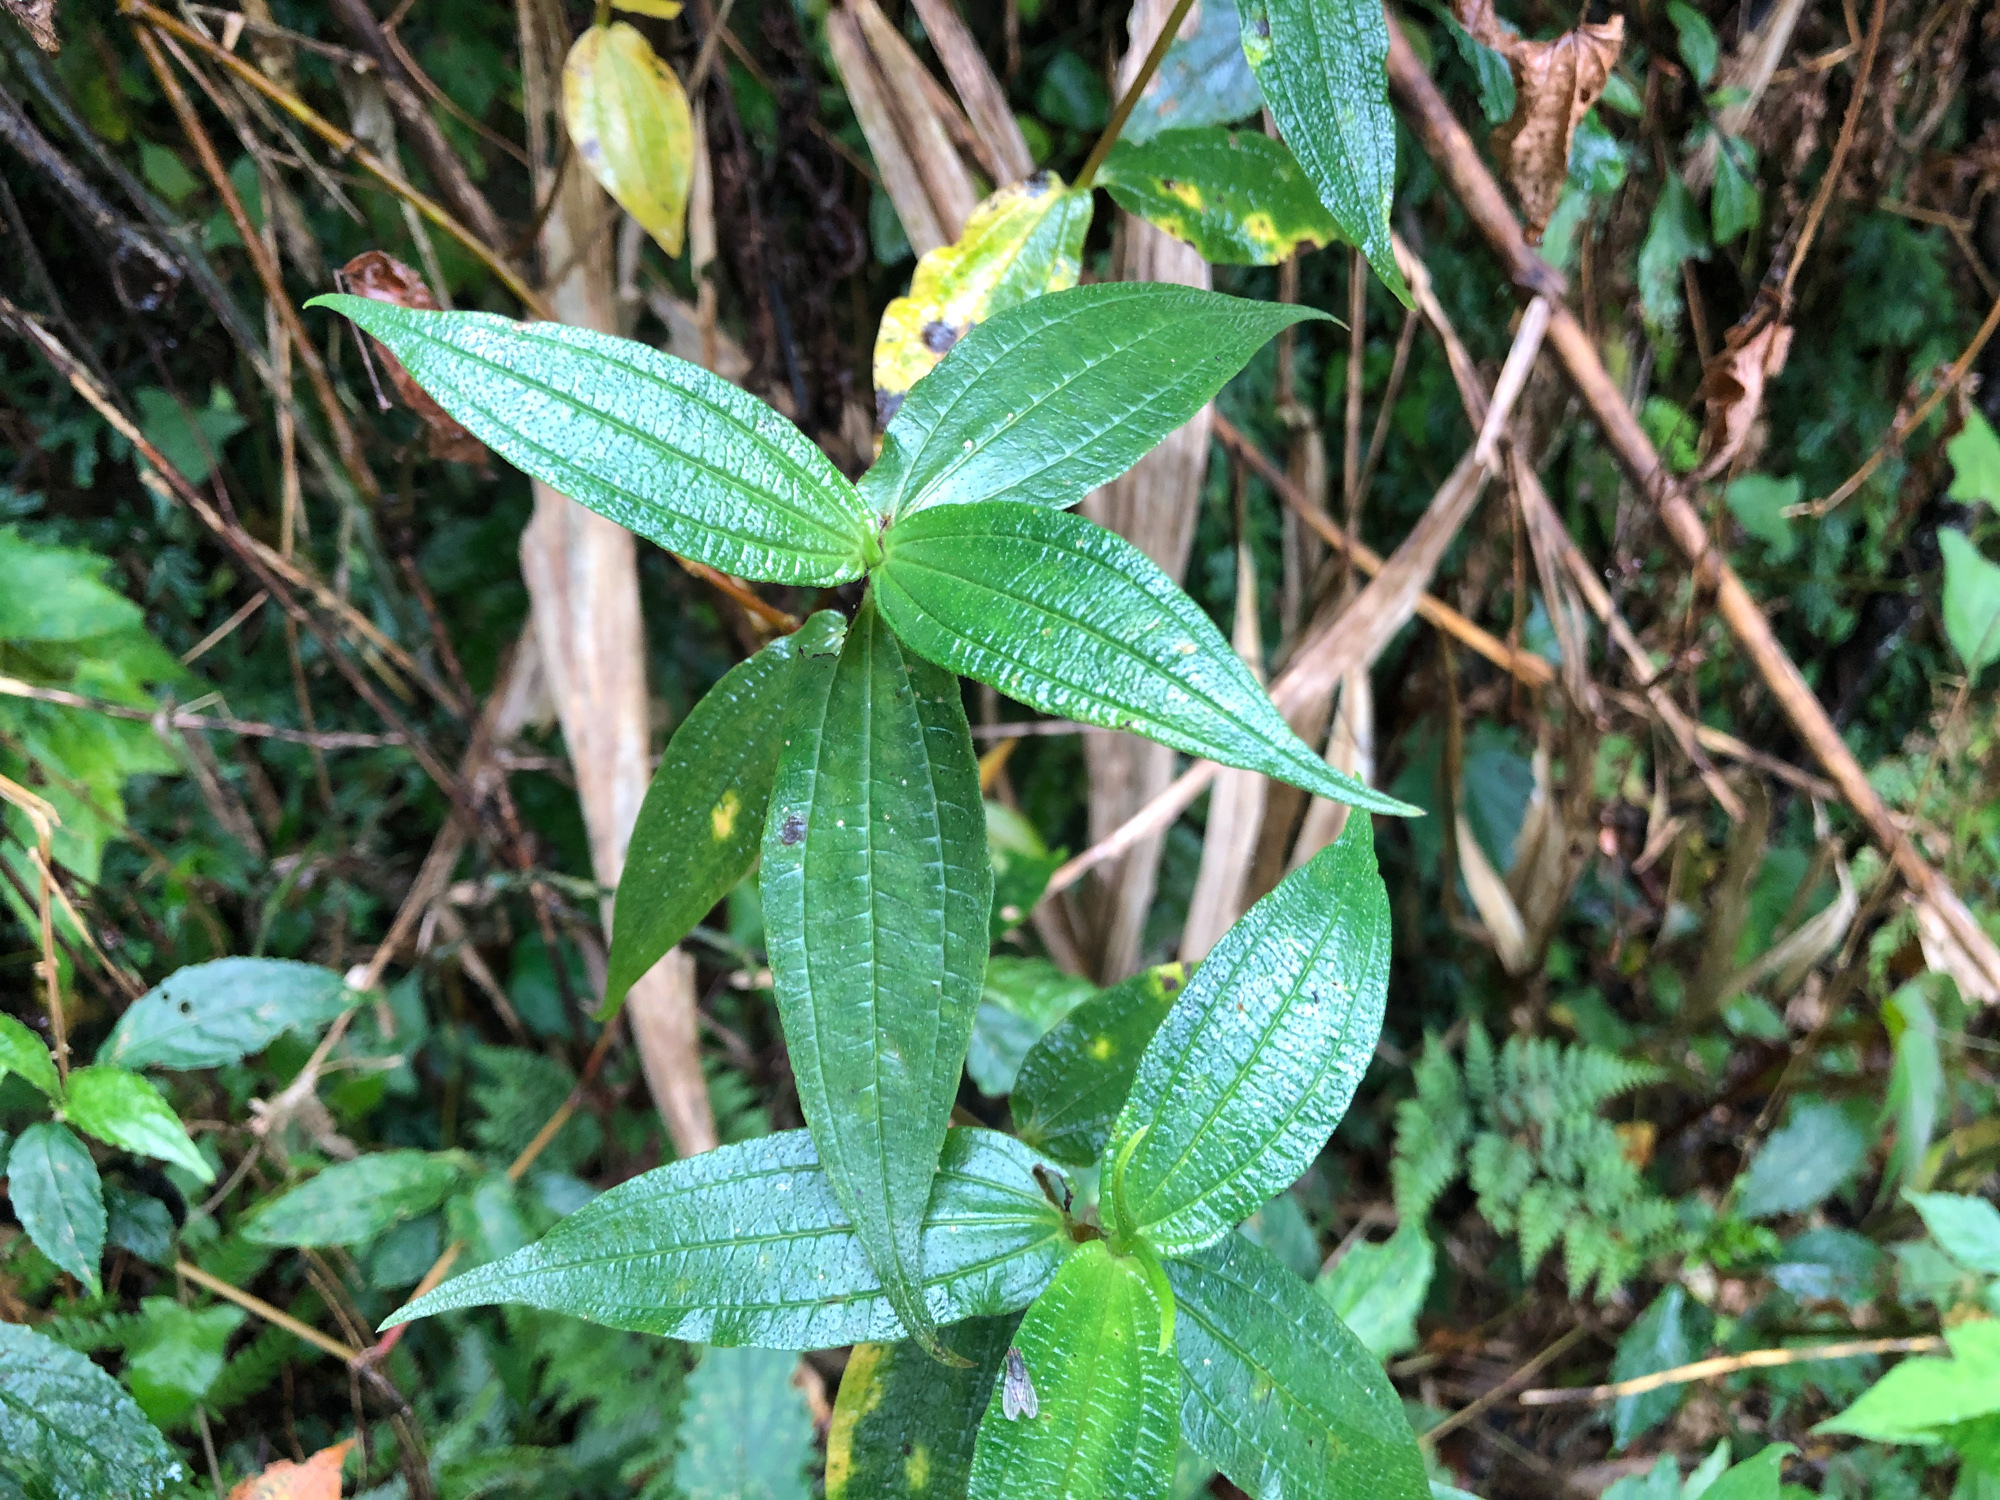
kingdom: Plantae
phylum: Tracheophyta
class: Magnoliopsida
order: Rosales
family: Urticaceae
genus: Gonostegia
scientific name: Gonostegia triandra
